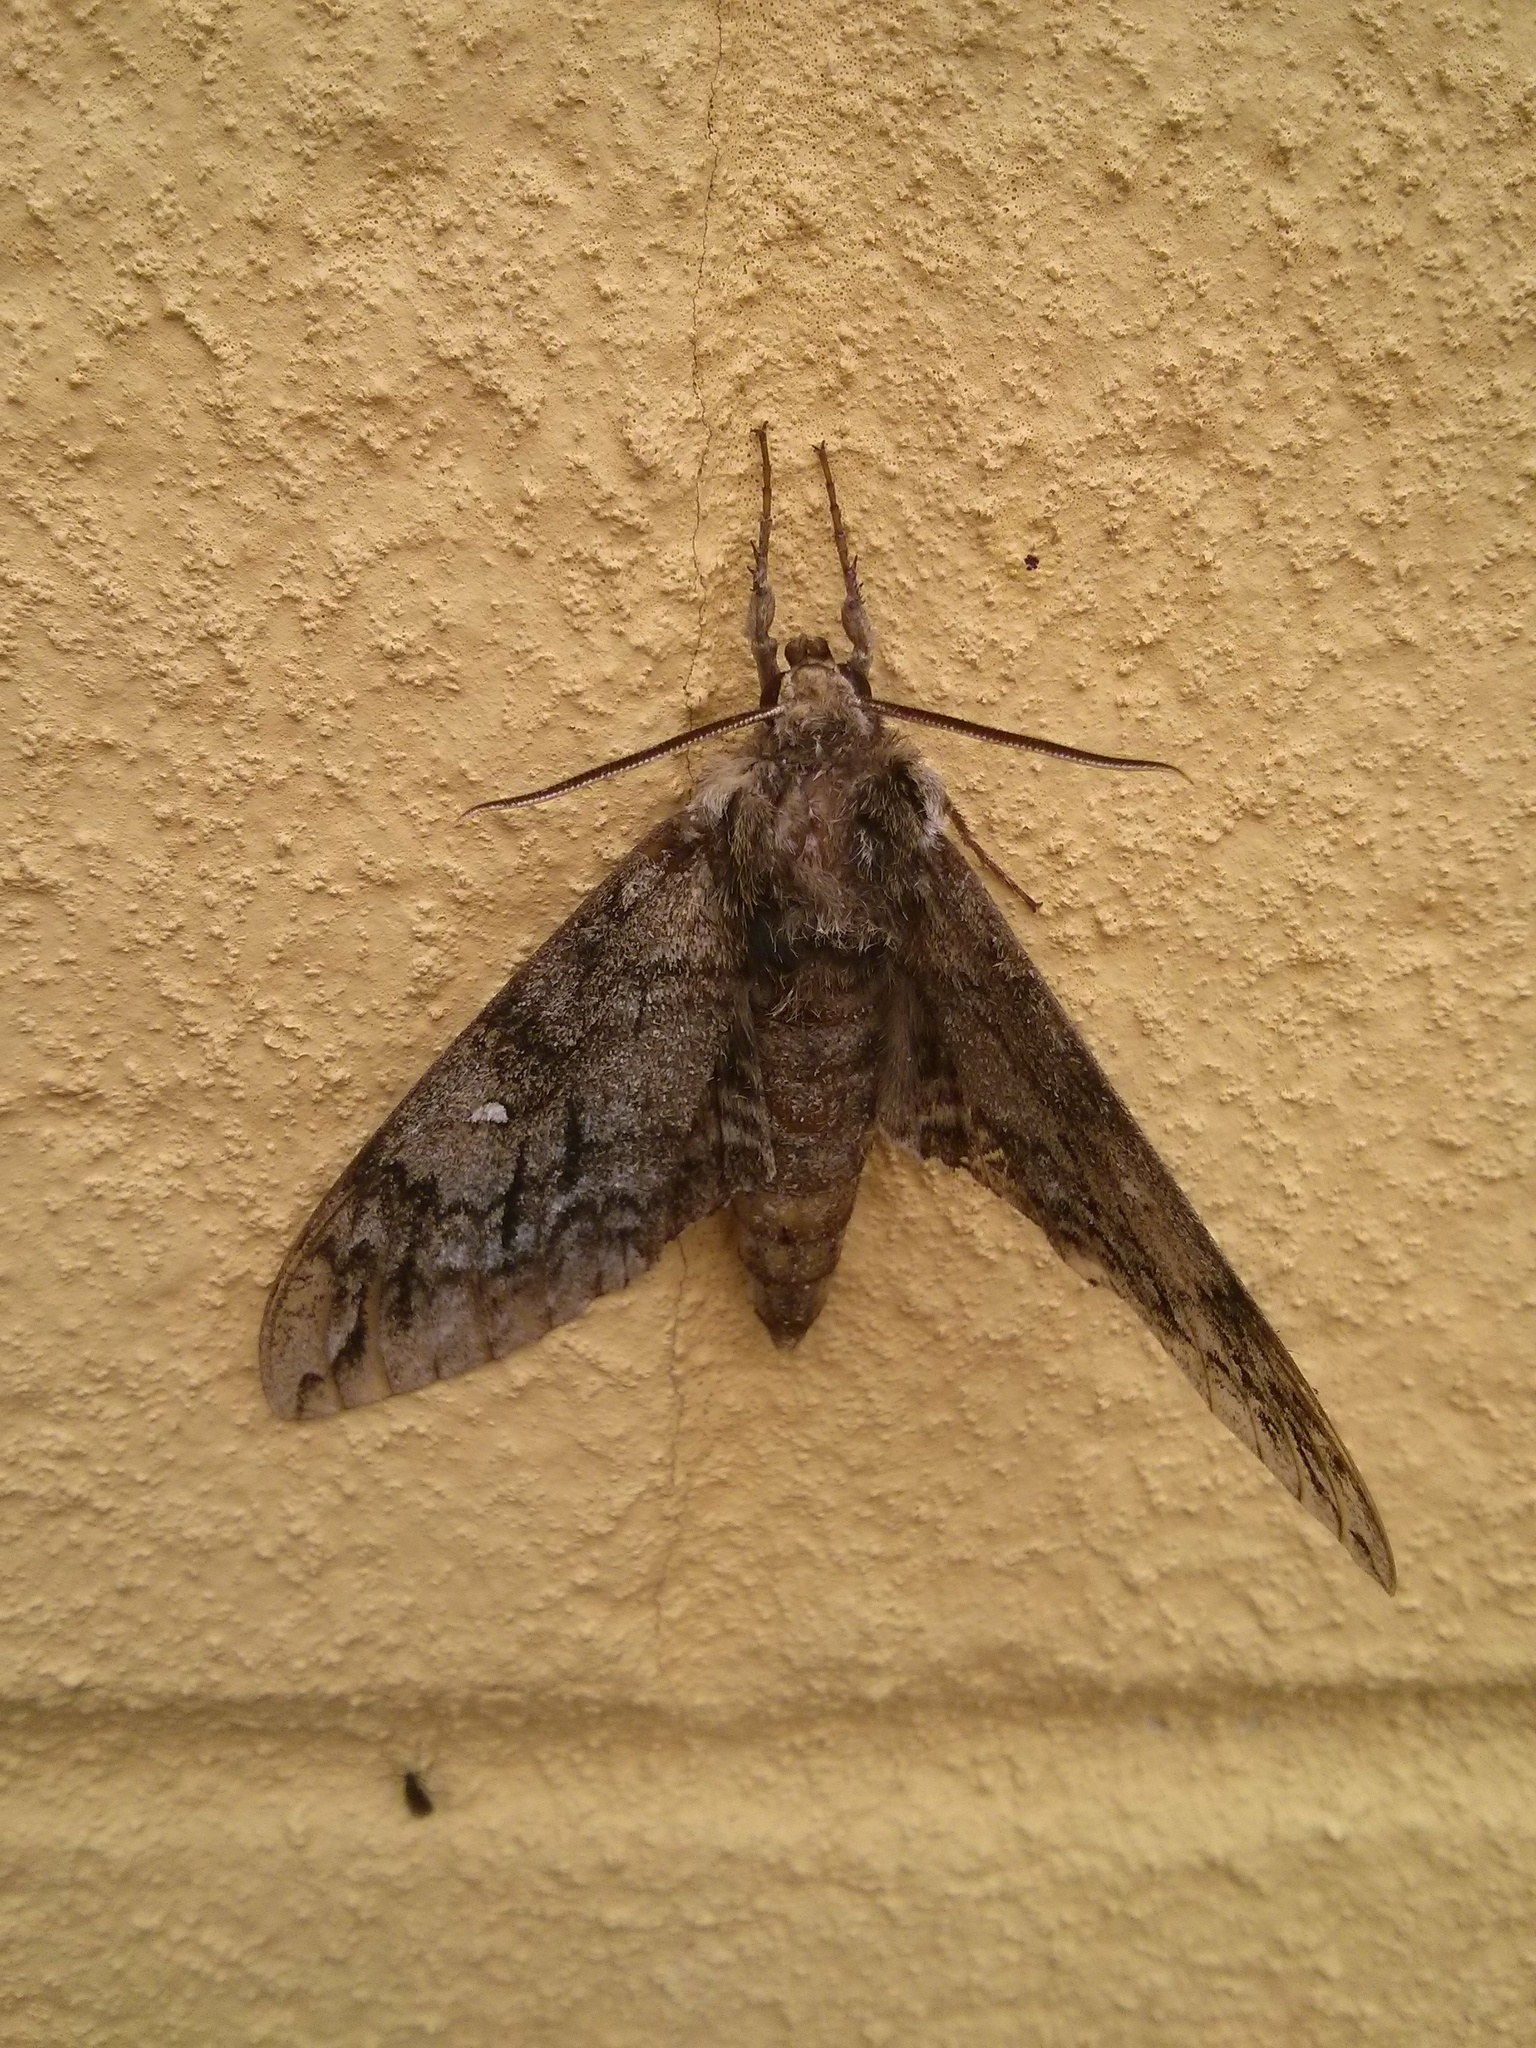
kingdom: Animalia
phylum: Arthropoda
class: Insecta
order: Lepidoptera
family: Sphingidae
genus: Ceratomia
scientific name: Ceratomia undulosa
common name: Waved sphinx
